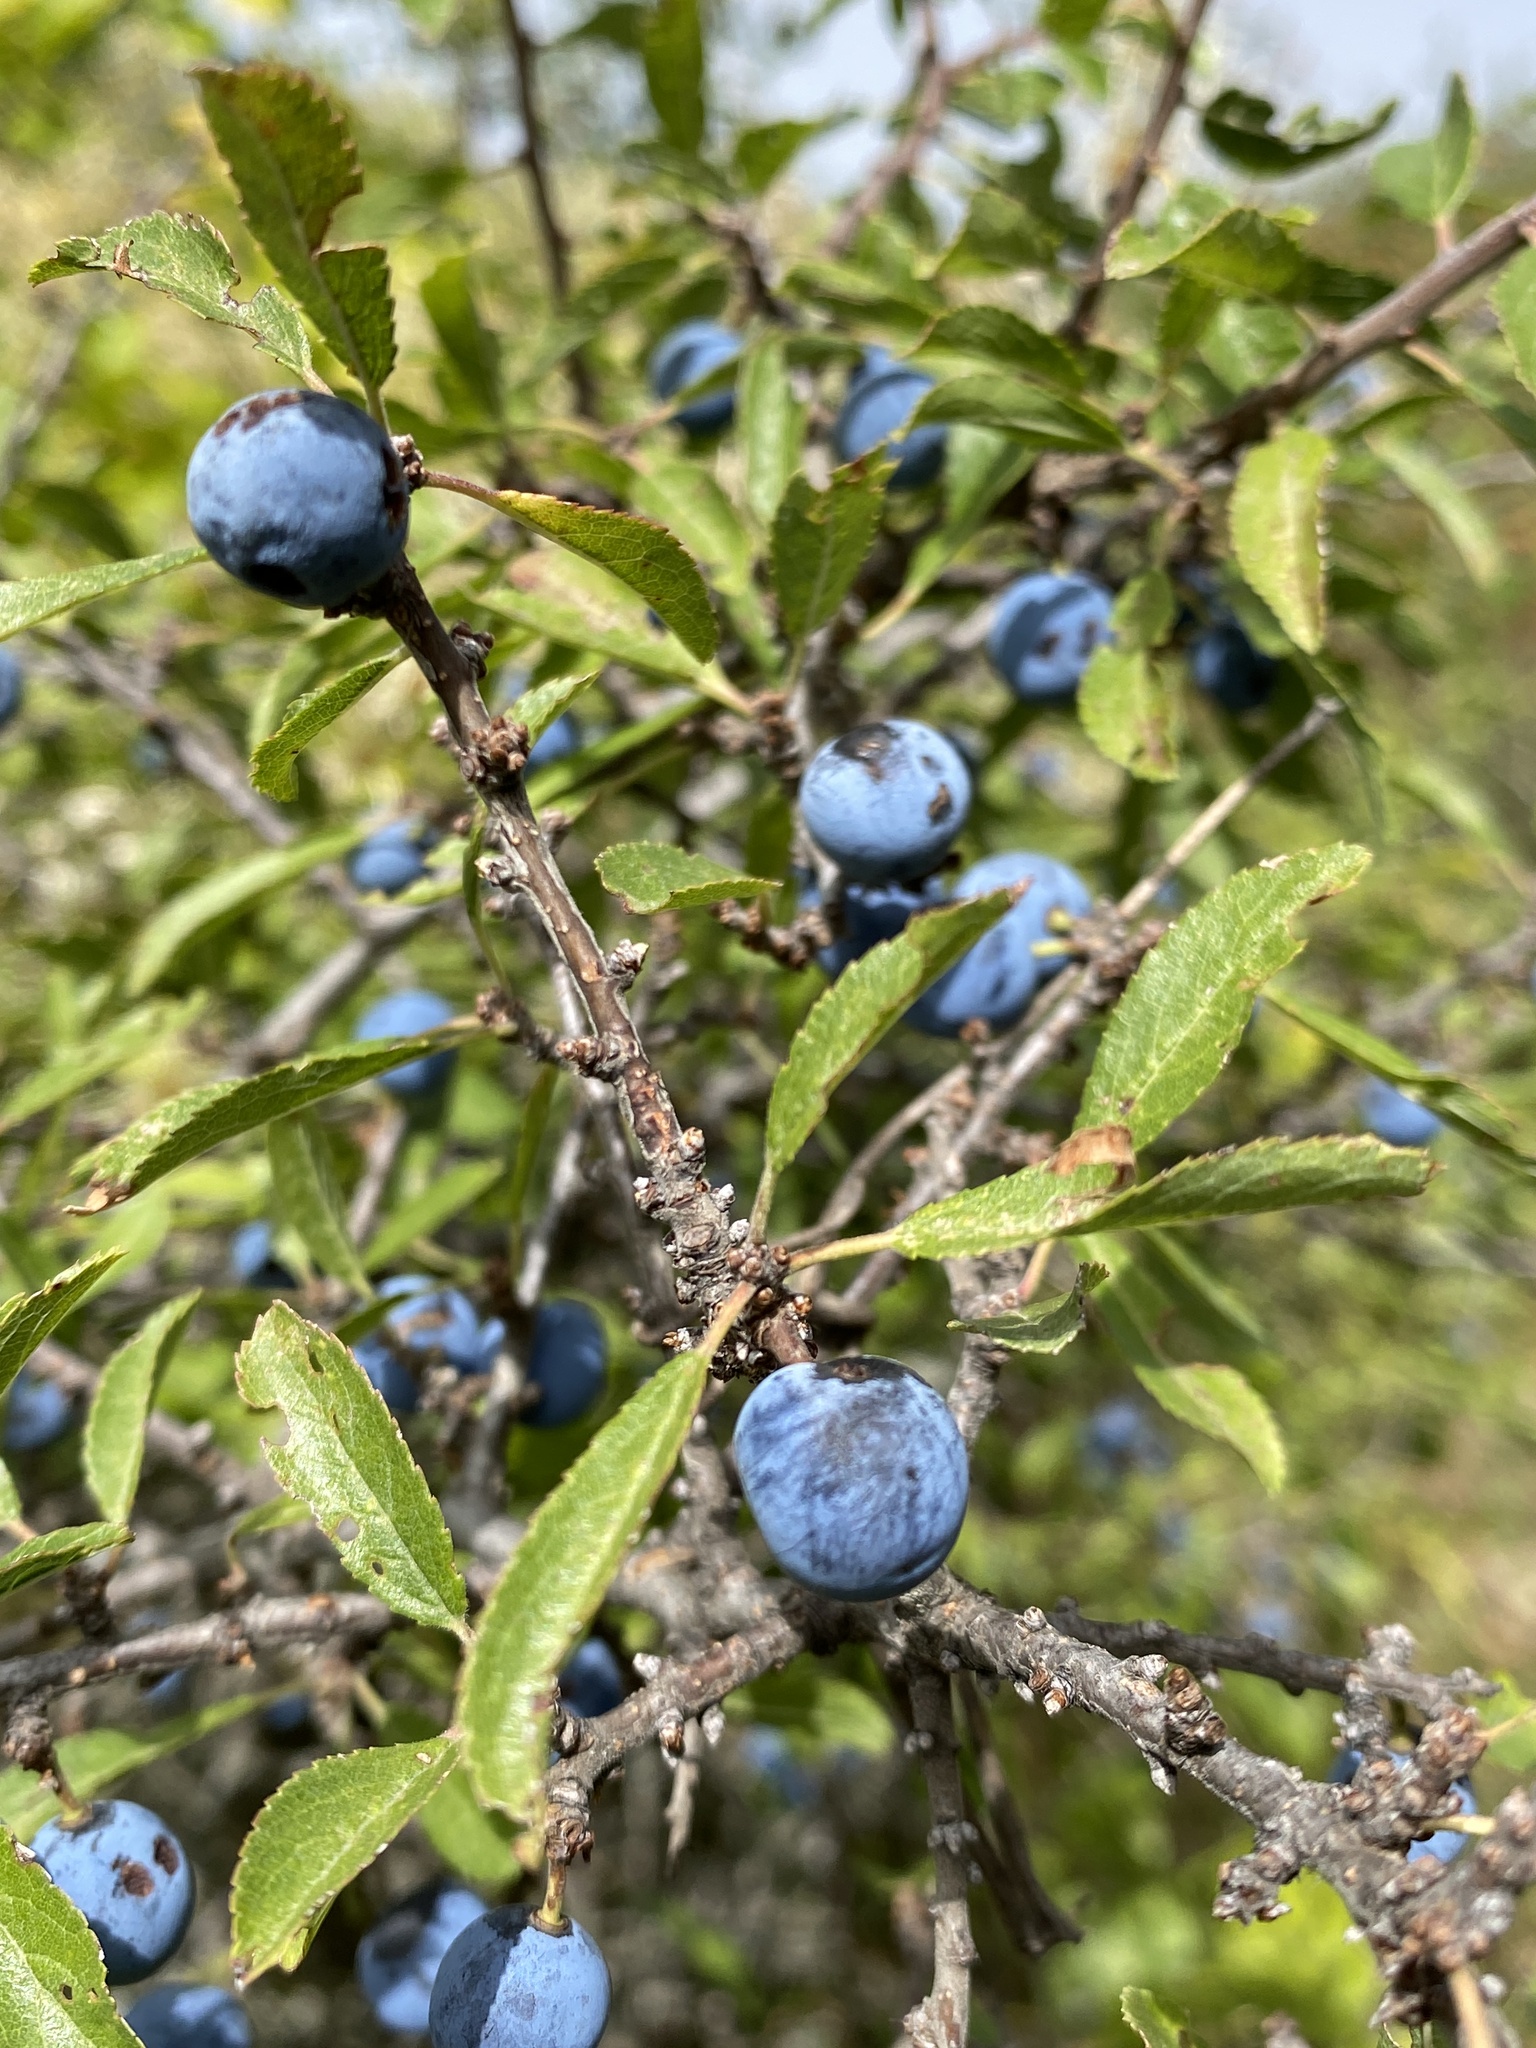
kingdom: Plantae
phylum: Tracheophyta
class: Magnoliopsida
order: Rosales
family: Rosaceae
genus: Prunus
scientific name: Prunus spinosa
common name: Blackthorn
